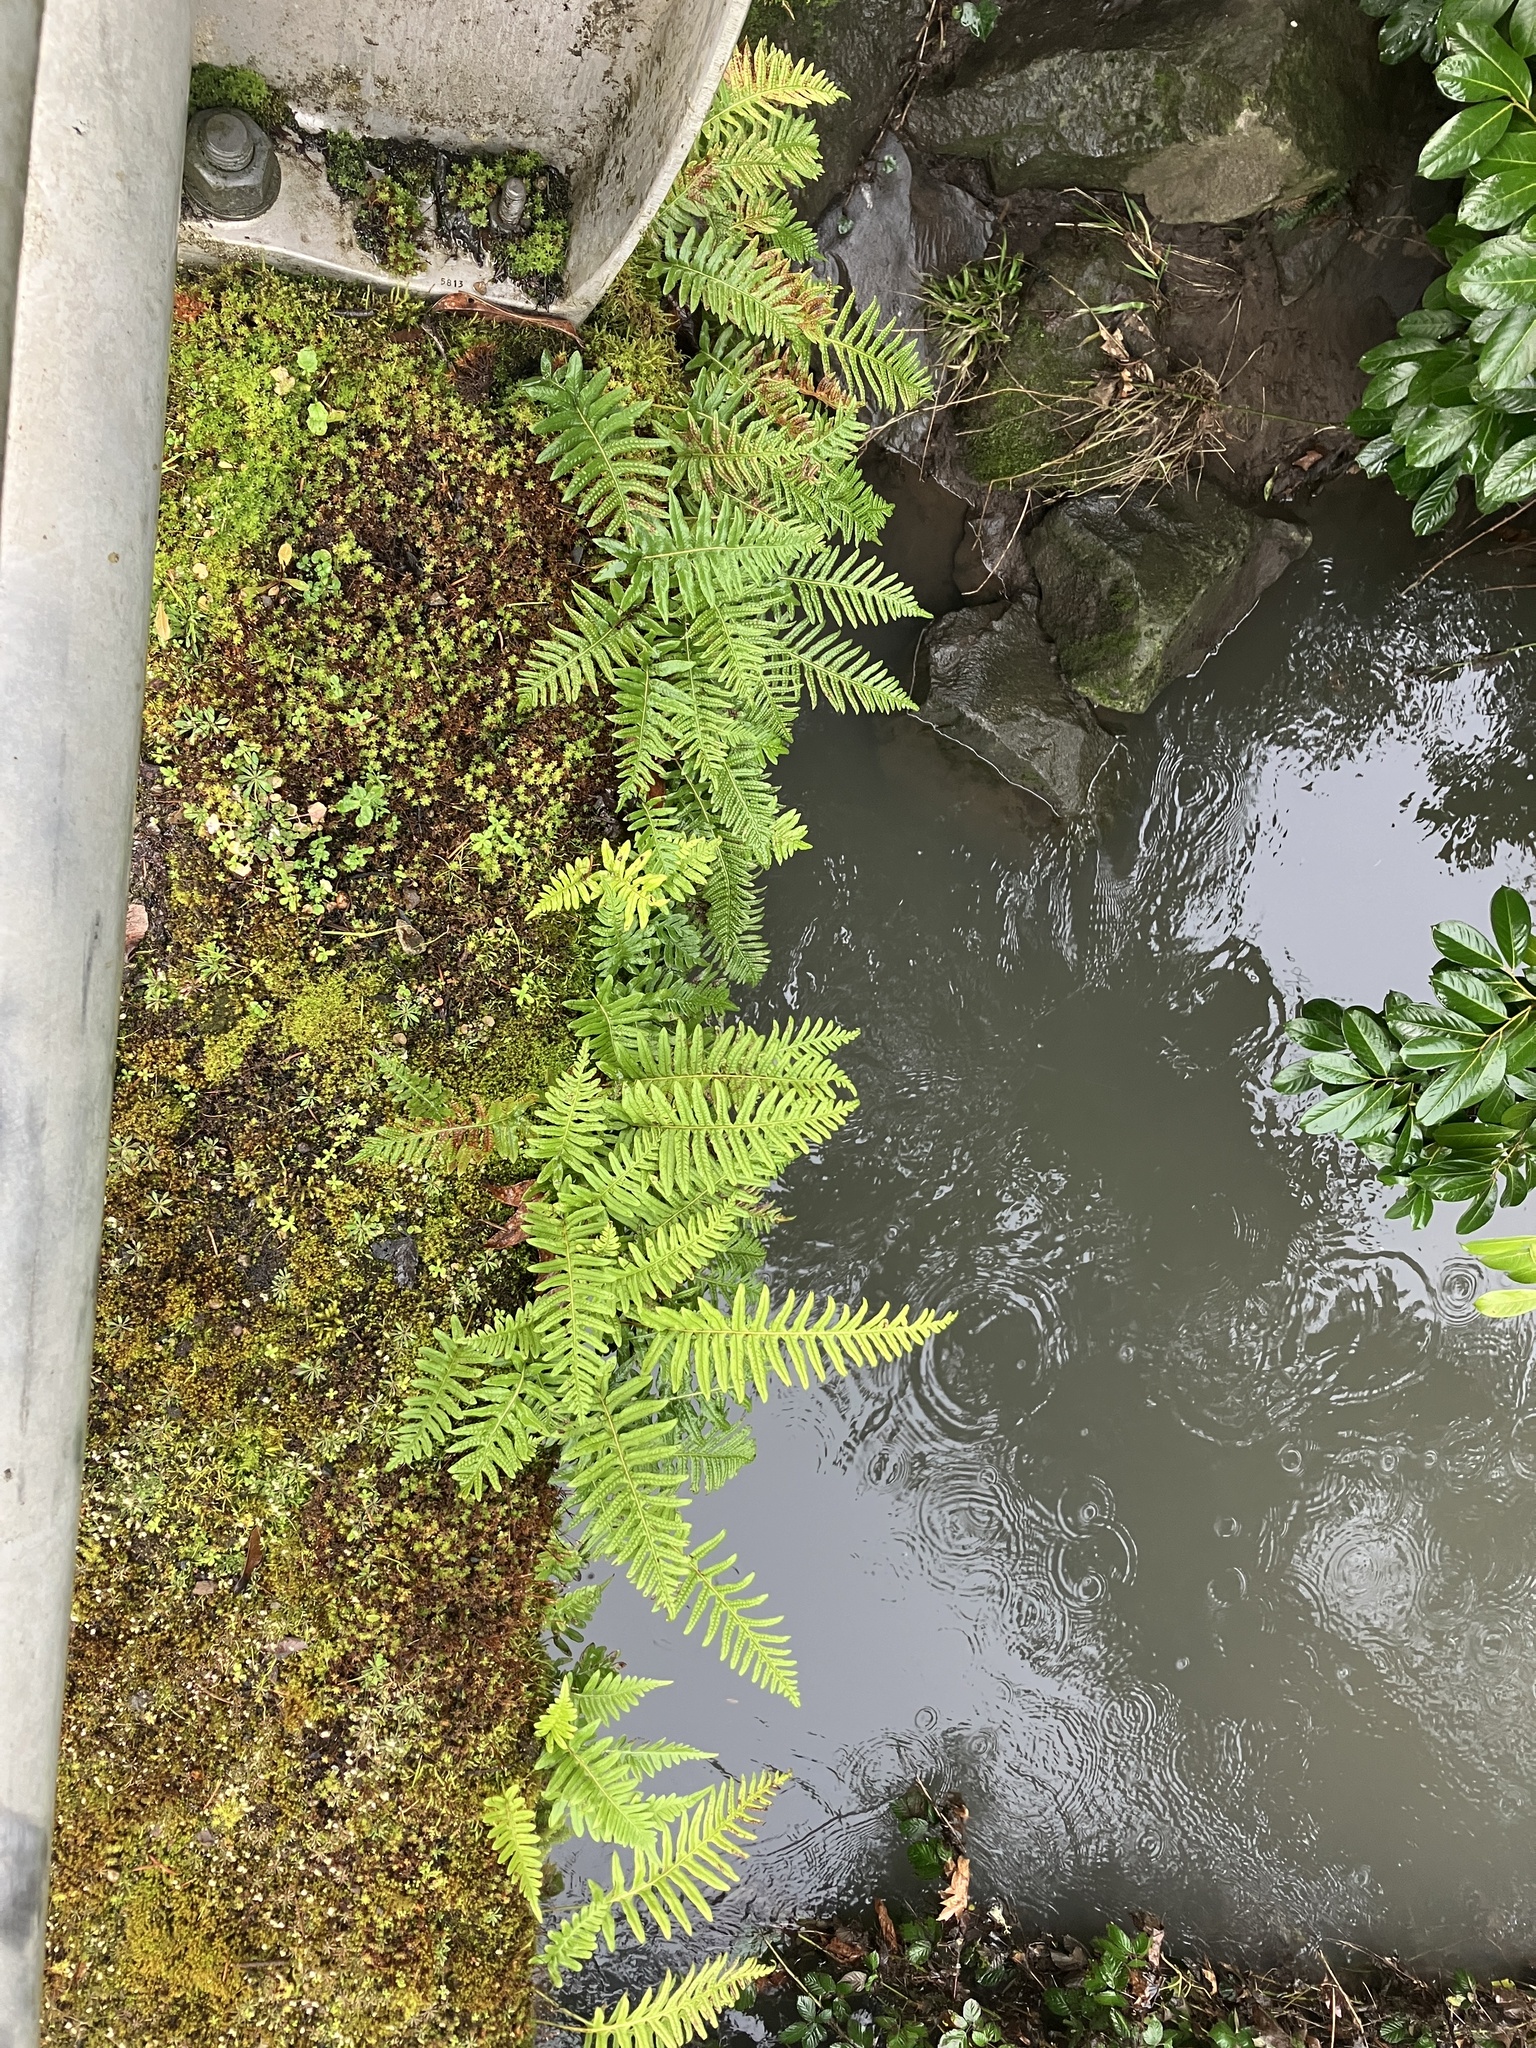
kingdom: Plantae
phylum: Tracheophyta
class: Polypodiopsida
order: Polypodiales
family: Polypodiaceae
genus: Polypodium
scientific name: Polypodium glycyrrhiza
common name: Licorice fern
